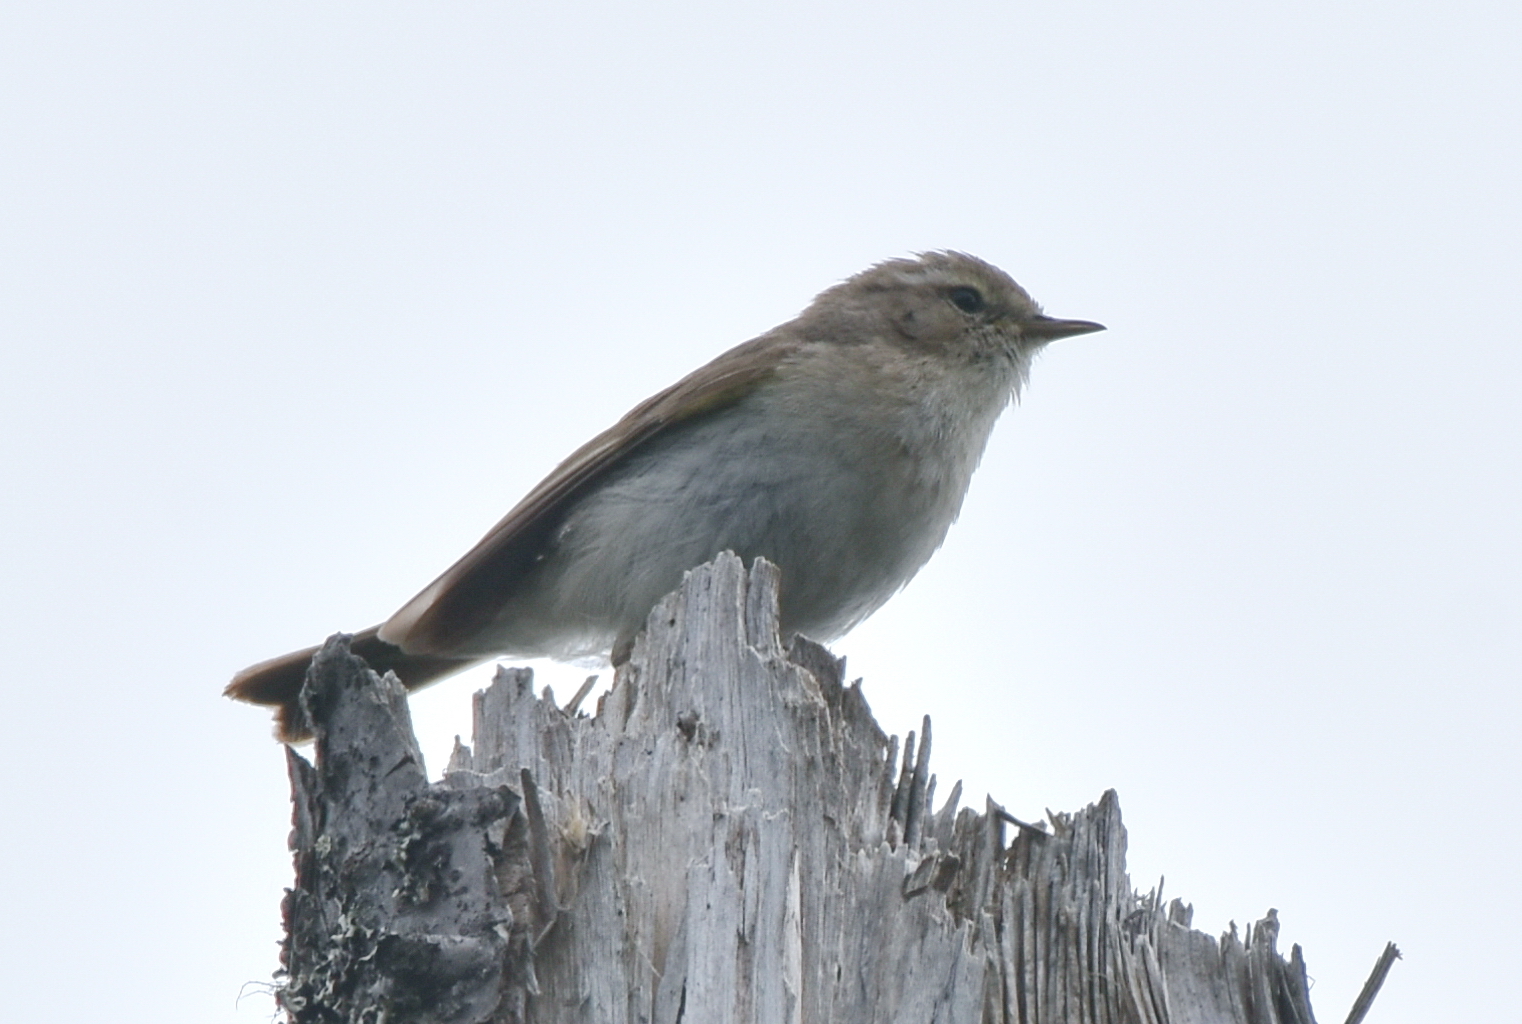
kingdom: Animalia
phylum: Chordata
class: Aves
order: Passeriformes
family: Phylloscopidae
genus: Phylloscopus
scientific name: Phylloscopus collybita
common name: Common chiffchaff
